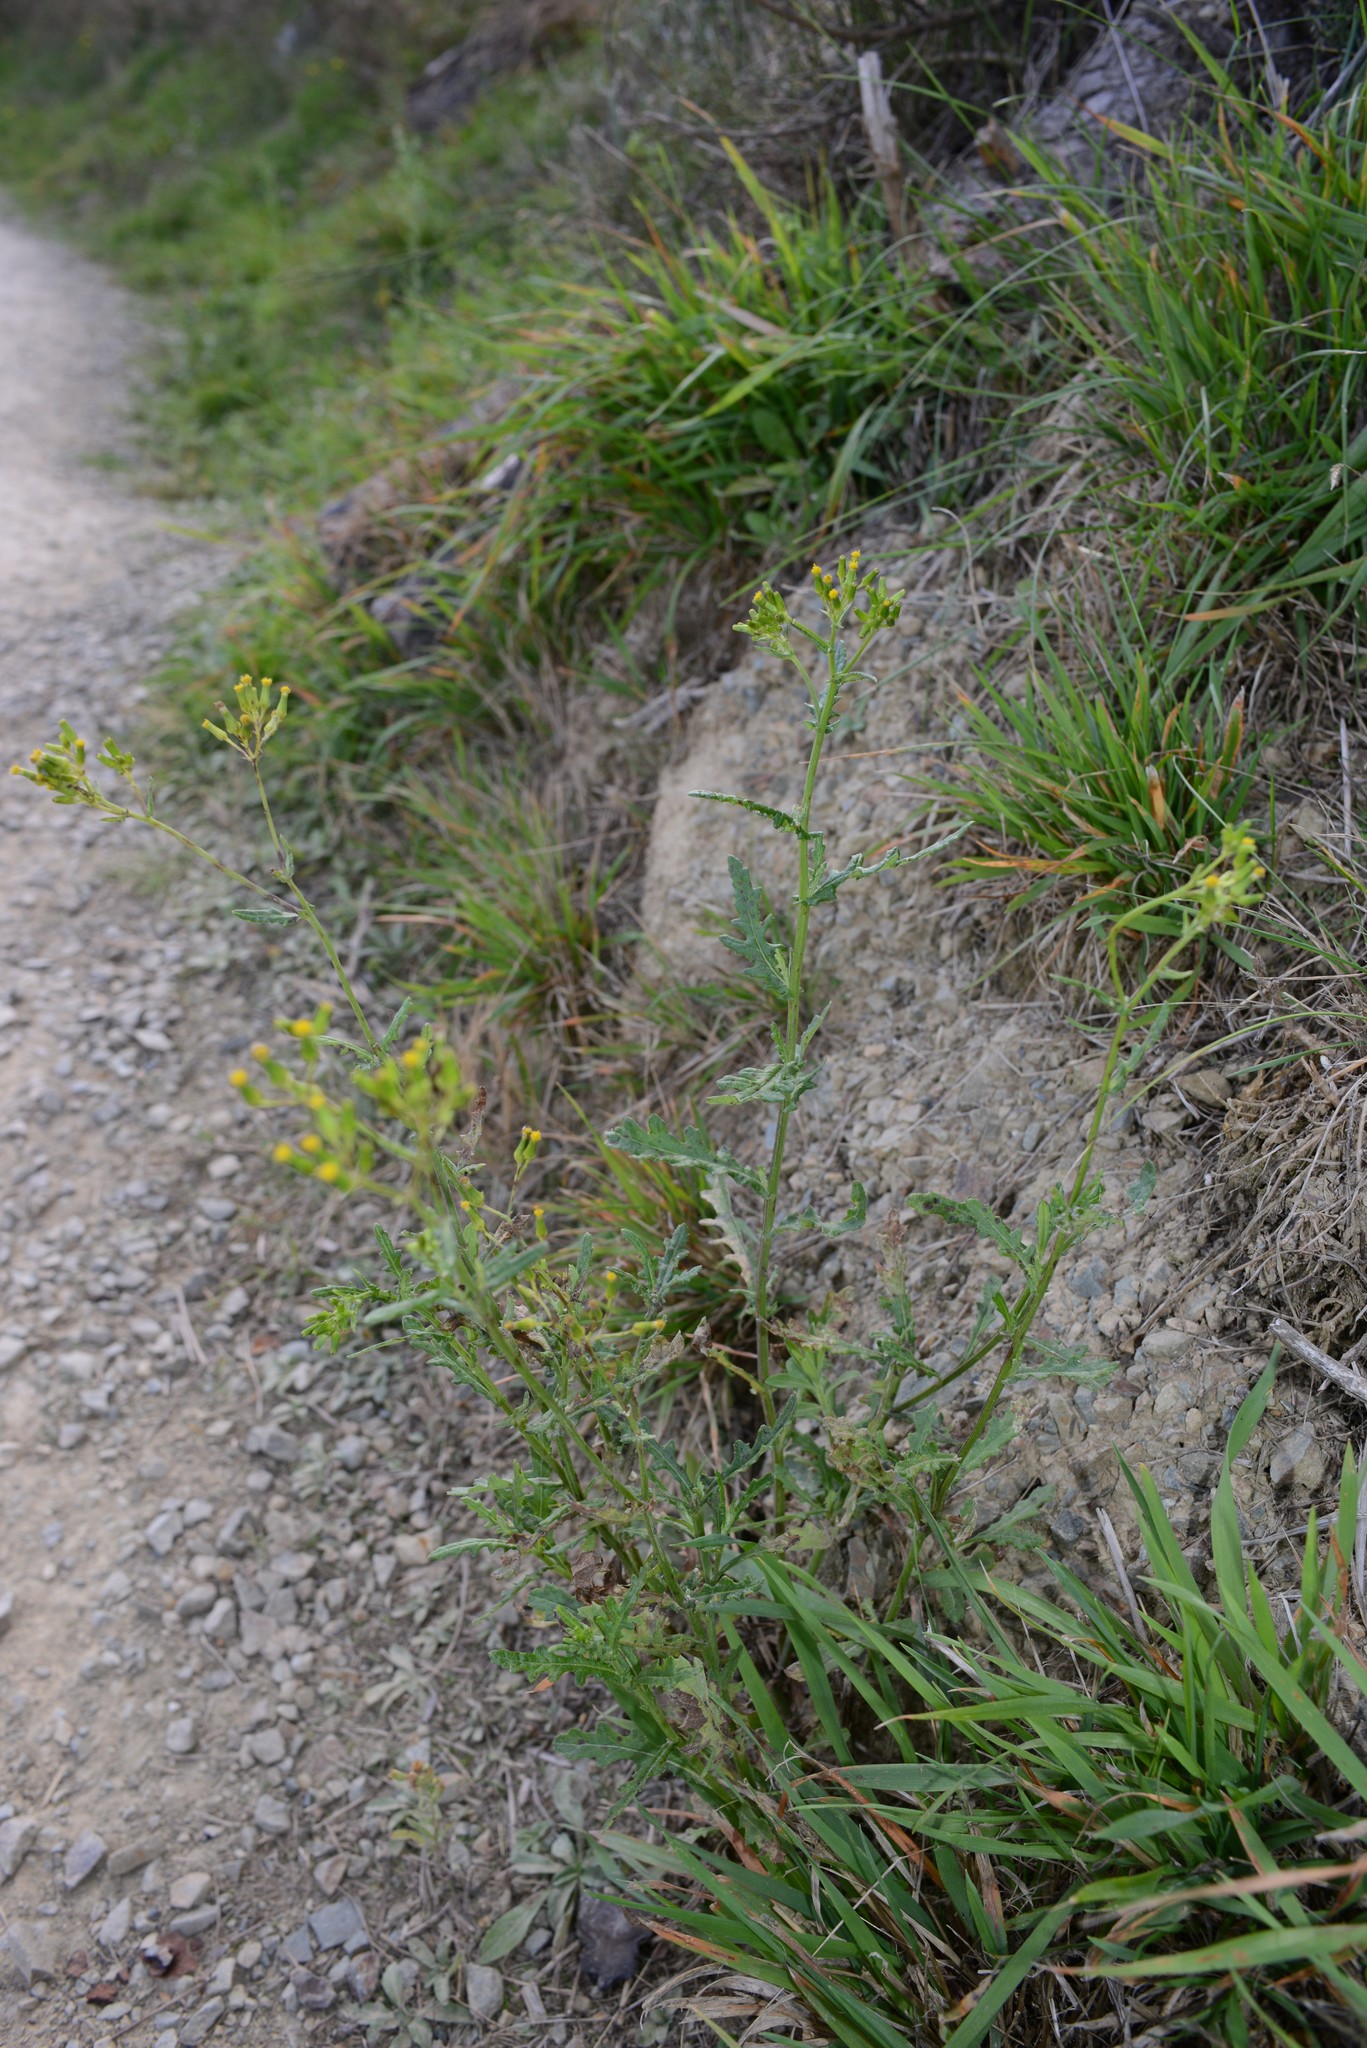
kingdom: Plantae
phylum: Tracheophyta
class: Magnoliopsida
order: Asterales
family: Asteraceae
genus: Senecio
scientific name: Senecio hispidulus
